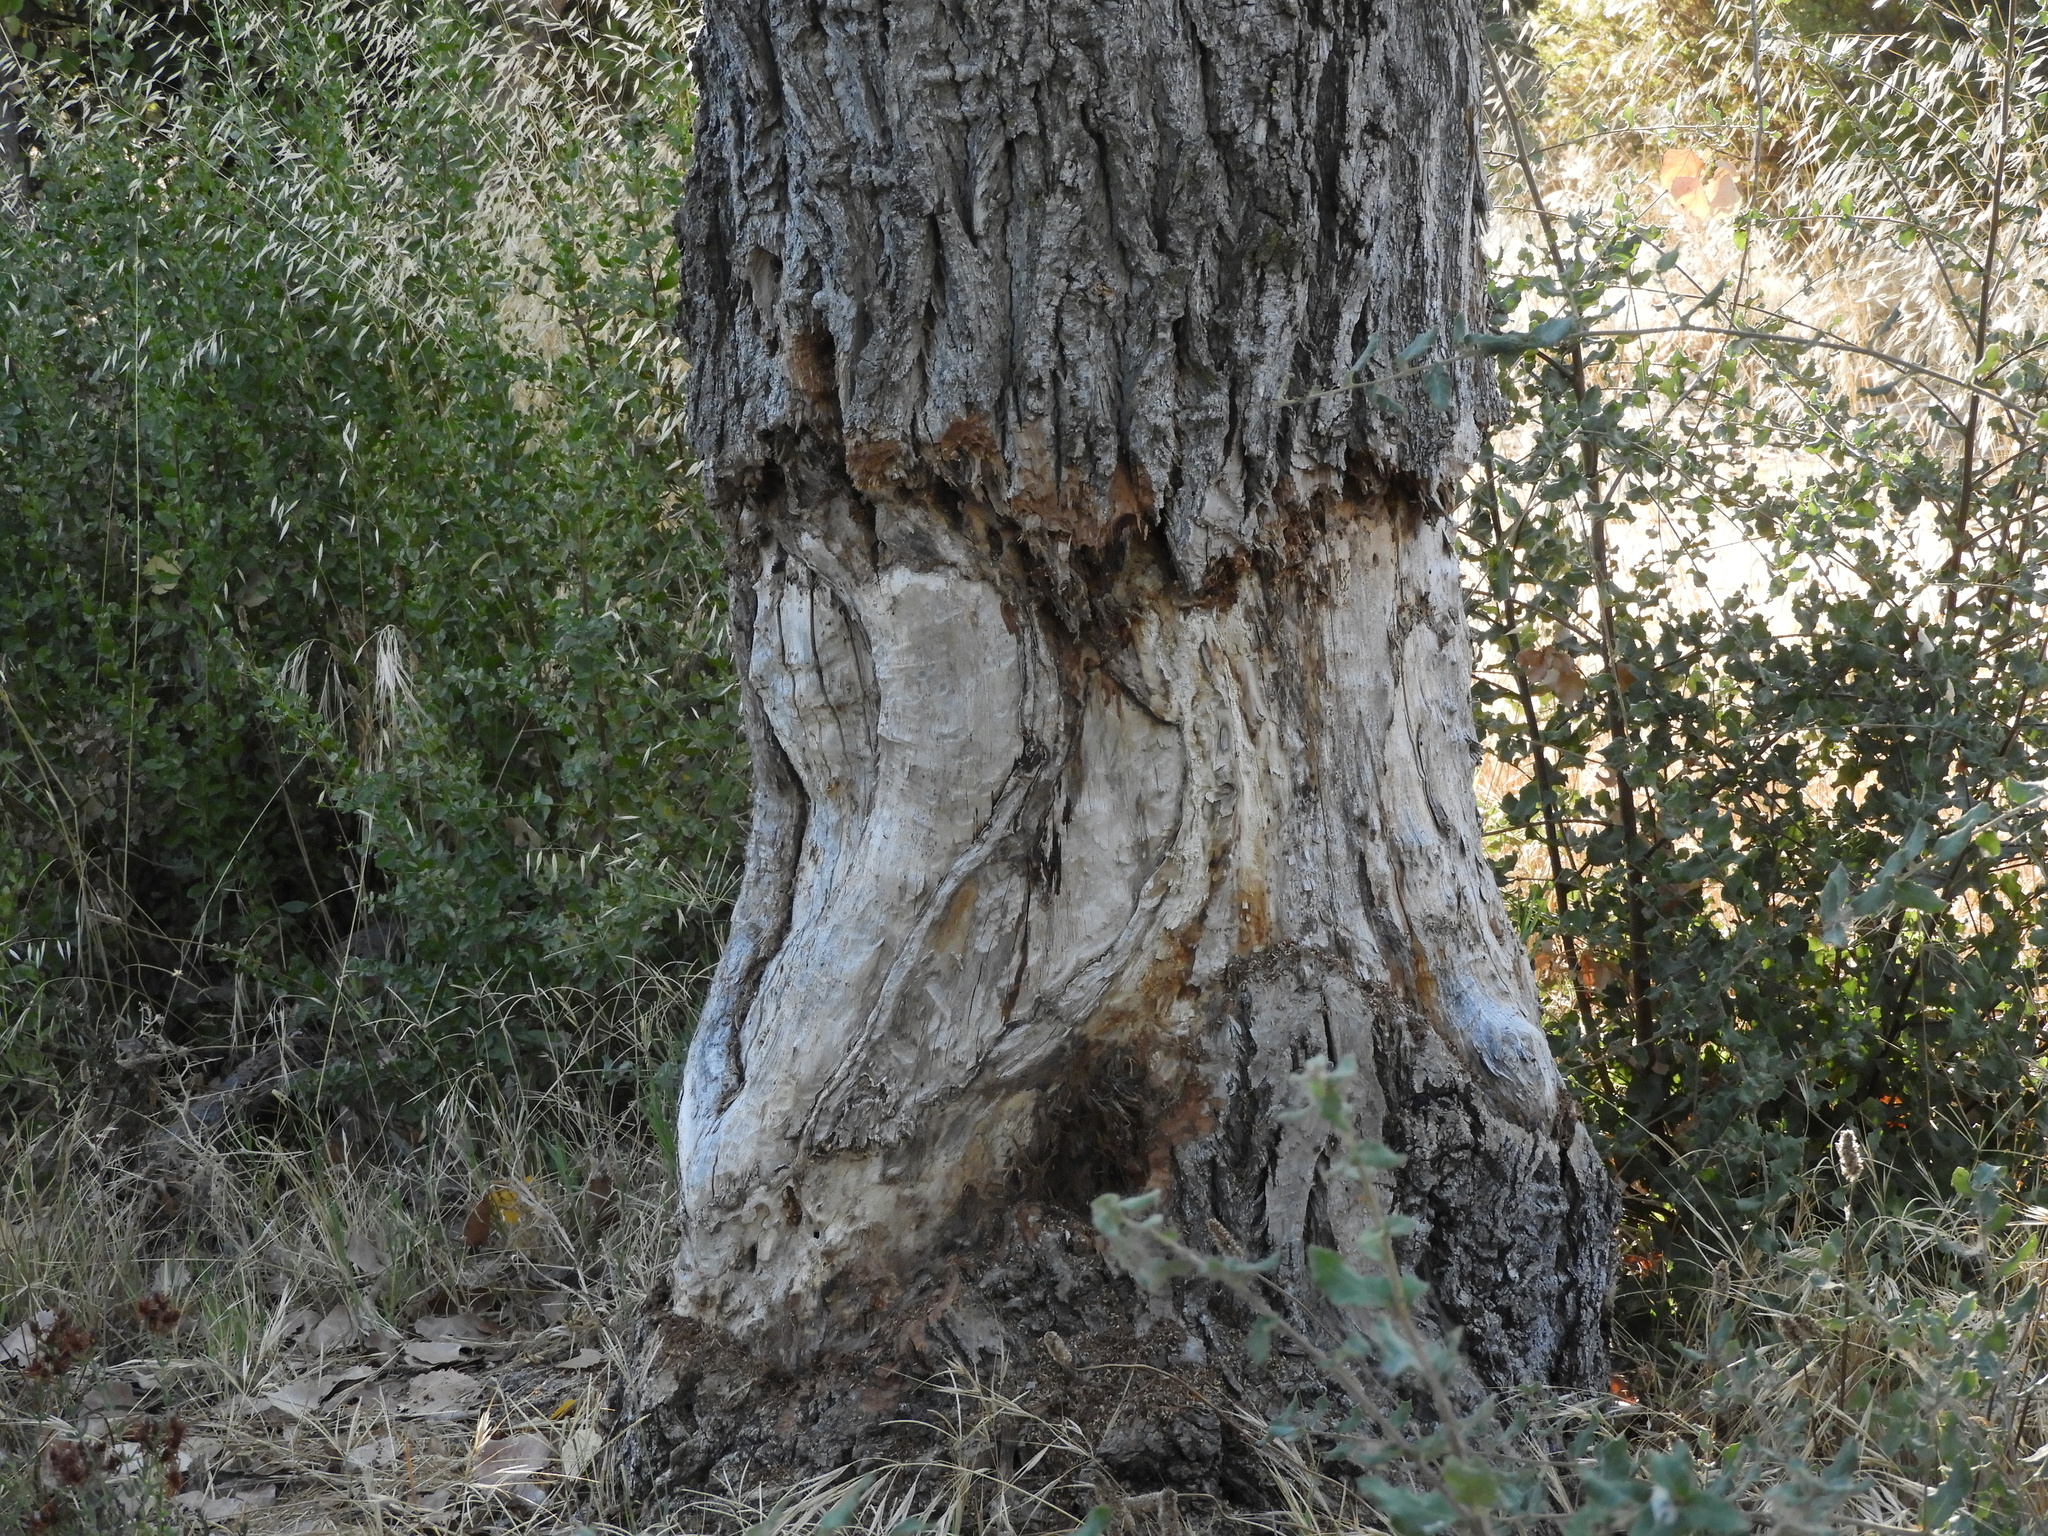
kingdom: Animalia
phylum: Chordata
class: Mammalia
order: Rodentia
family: Castoridae
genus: Castor
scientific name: Castor canadensis
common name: American beaver
